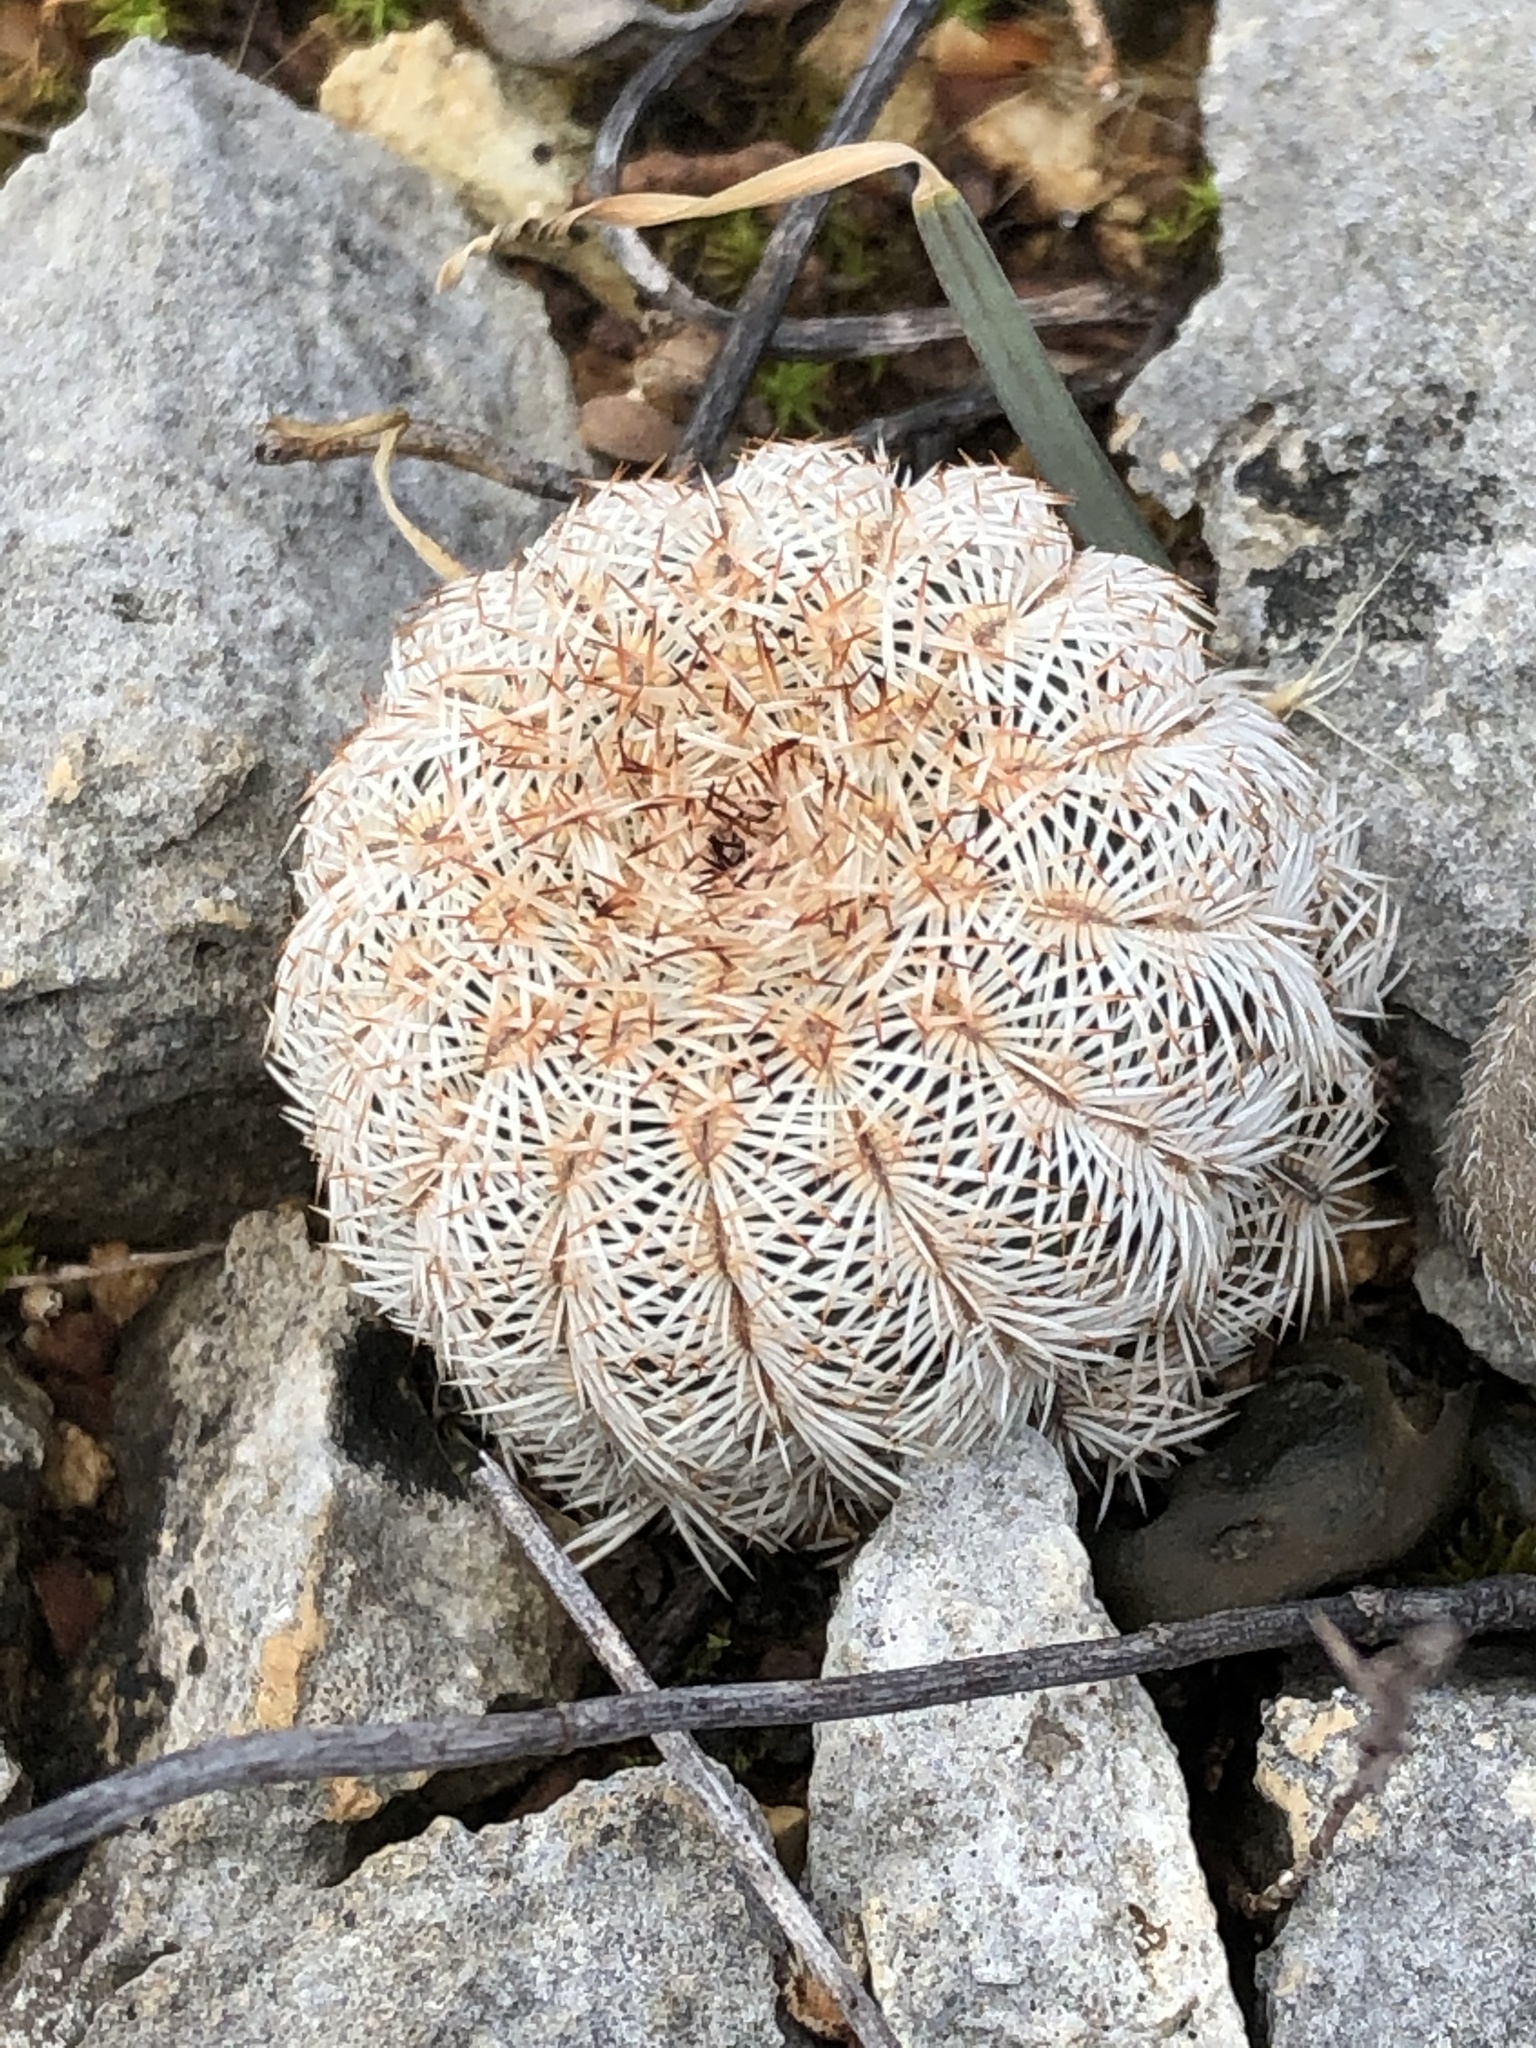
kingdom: Plantae
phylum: Tracheophyta
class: Magnoliopsida
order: Caryophyllales
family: Cactaceae
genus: Echinocereus
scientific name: Echinocereus reichenbachii
